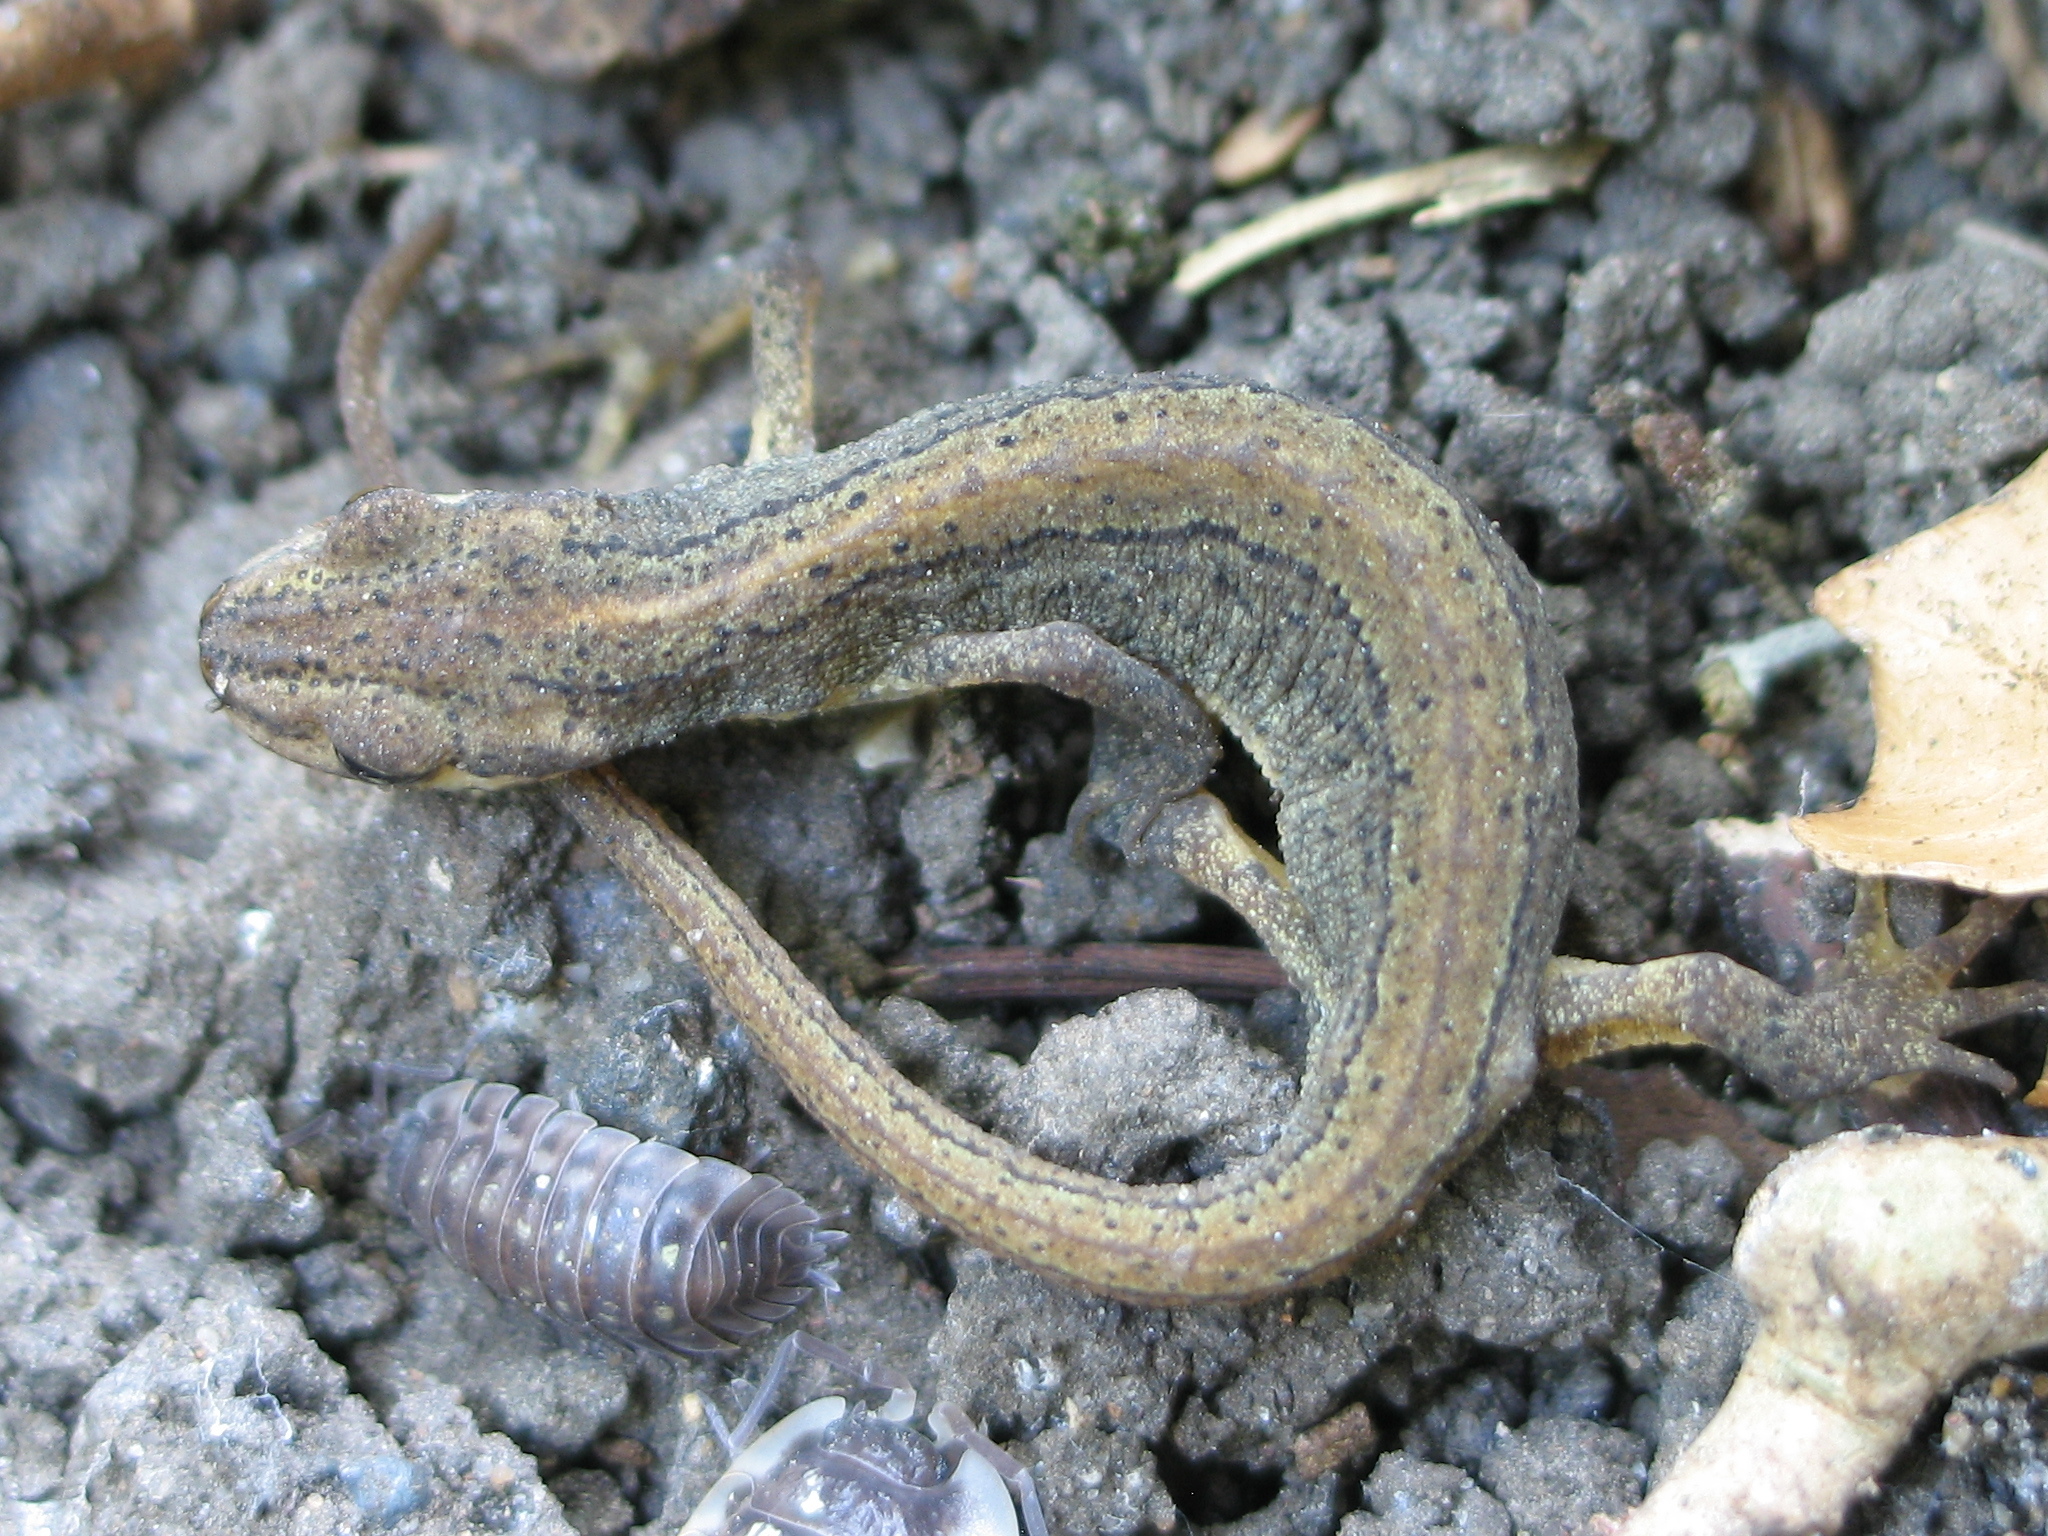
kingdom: Animalia
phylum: Chordata
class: Amphibia
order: Caudata
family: Salamandridae
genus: Lissotriton
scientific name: Lissotriton vulgaris
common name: Smooth newt
